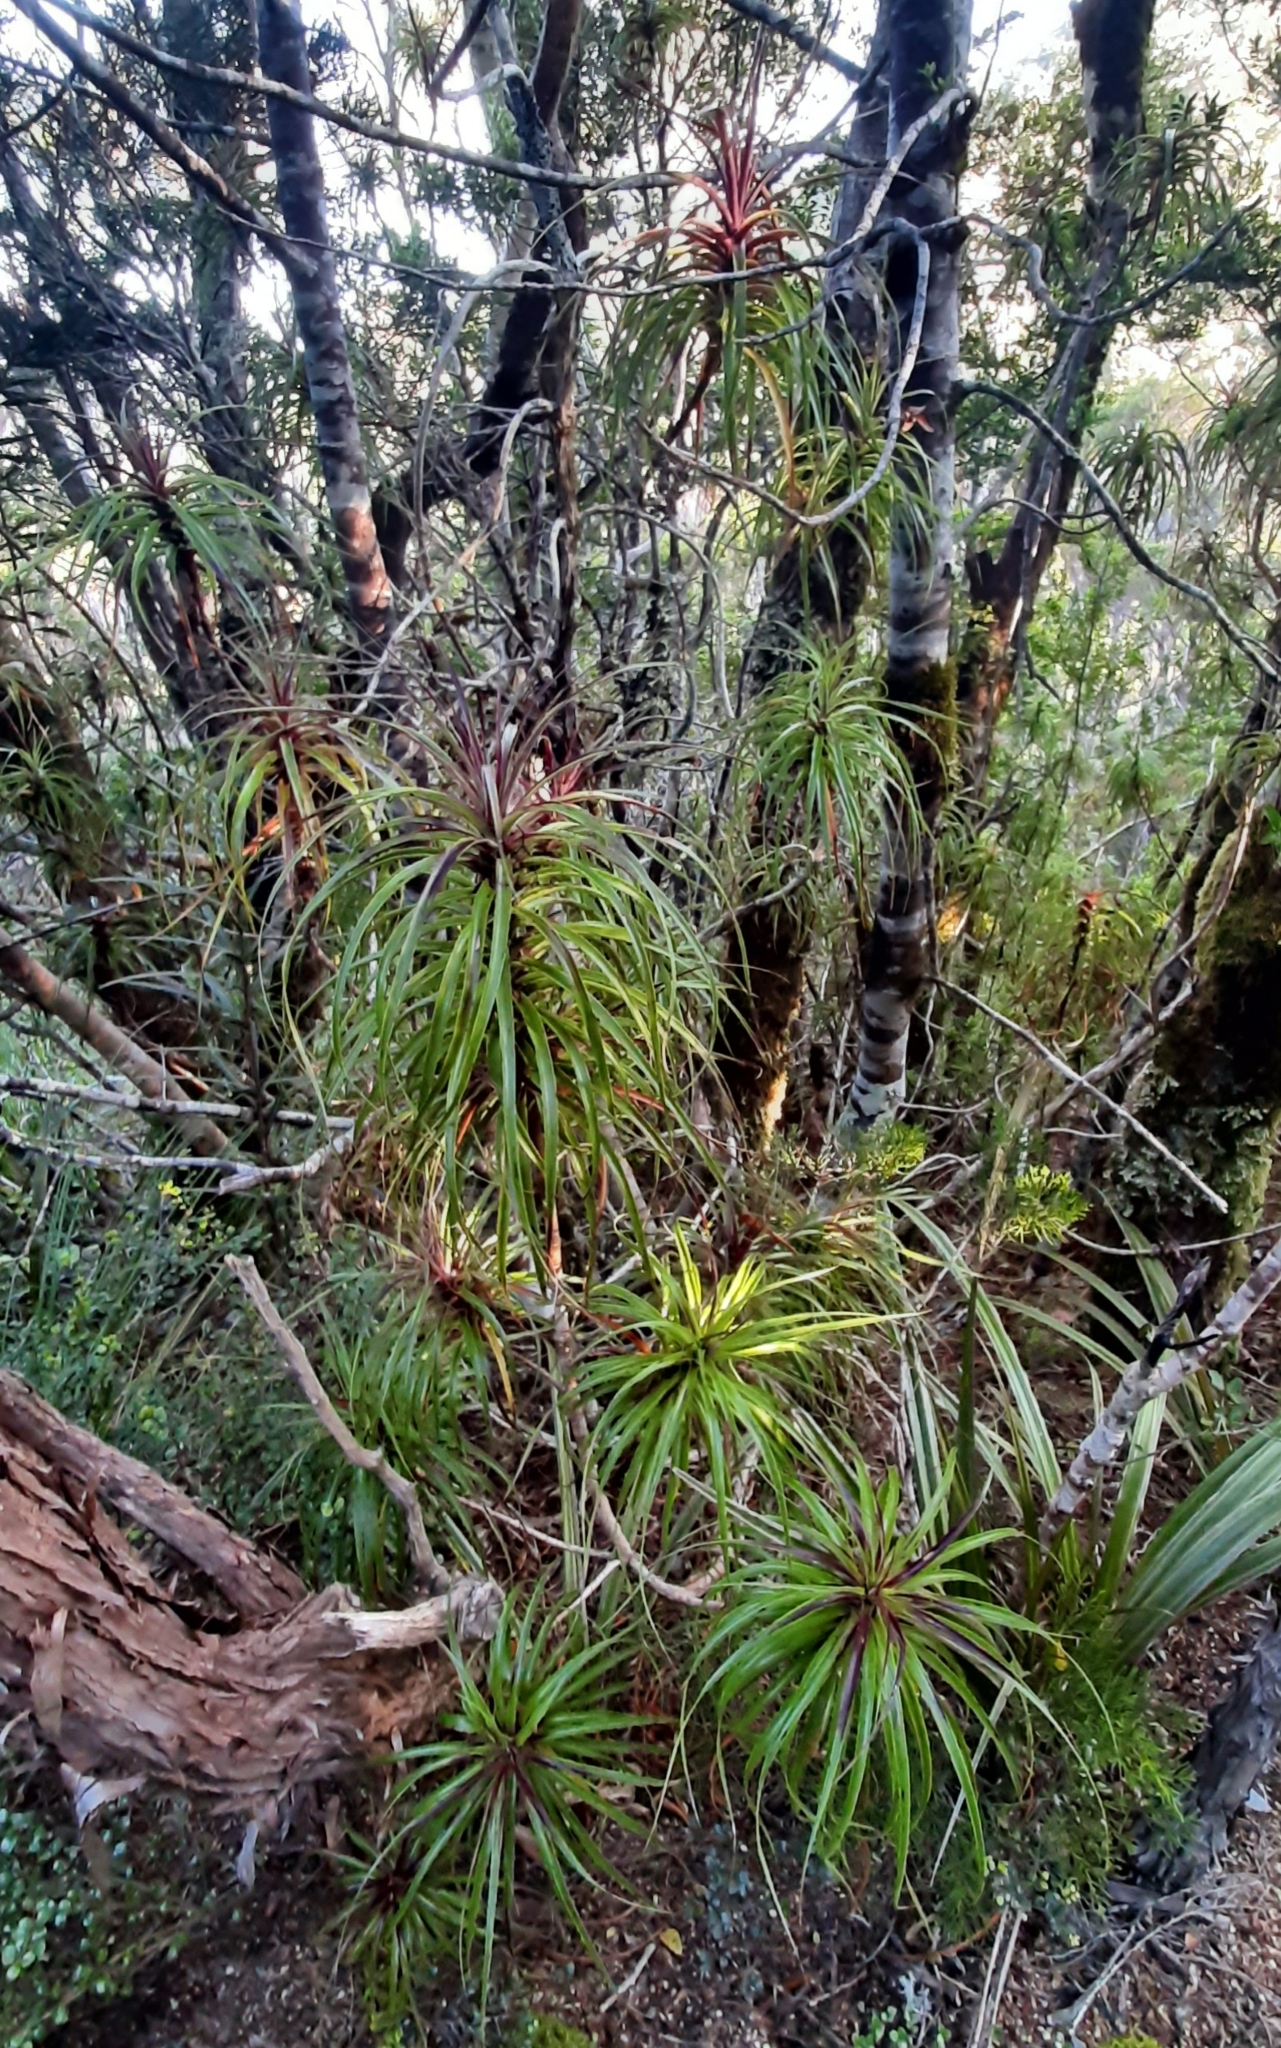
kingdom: Plantae
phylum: Tracheophyta
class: Magnoliopsida
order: Ericales
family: Ericaceae
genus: Dracophyllum
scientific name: Dracophyllum townsonii
